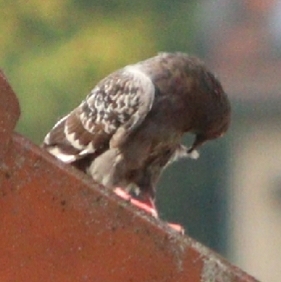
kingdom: Animalia
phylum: Chordata
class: Aves
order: Columbiformes
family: Columbidae
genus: Columba
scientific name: Columba livia
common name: Rock pigeon
